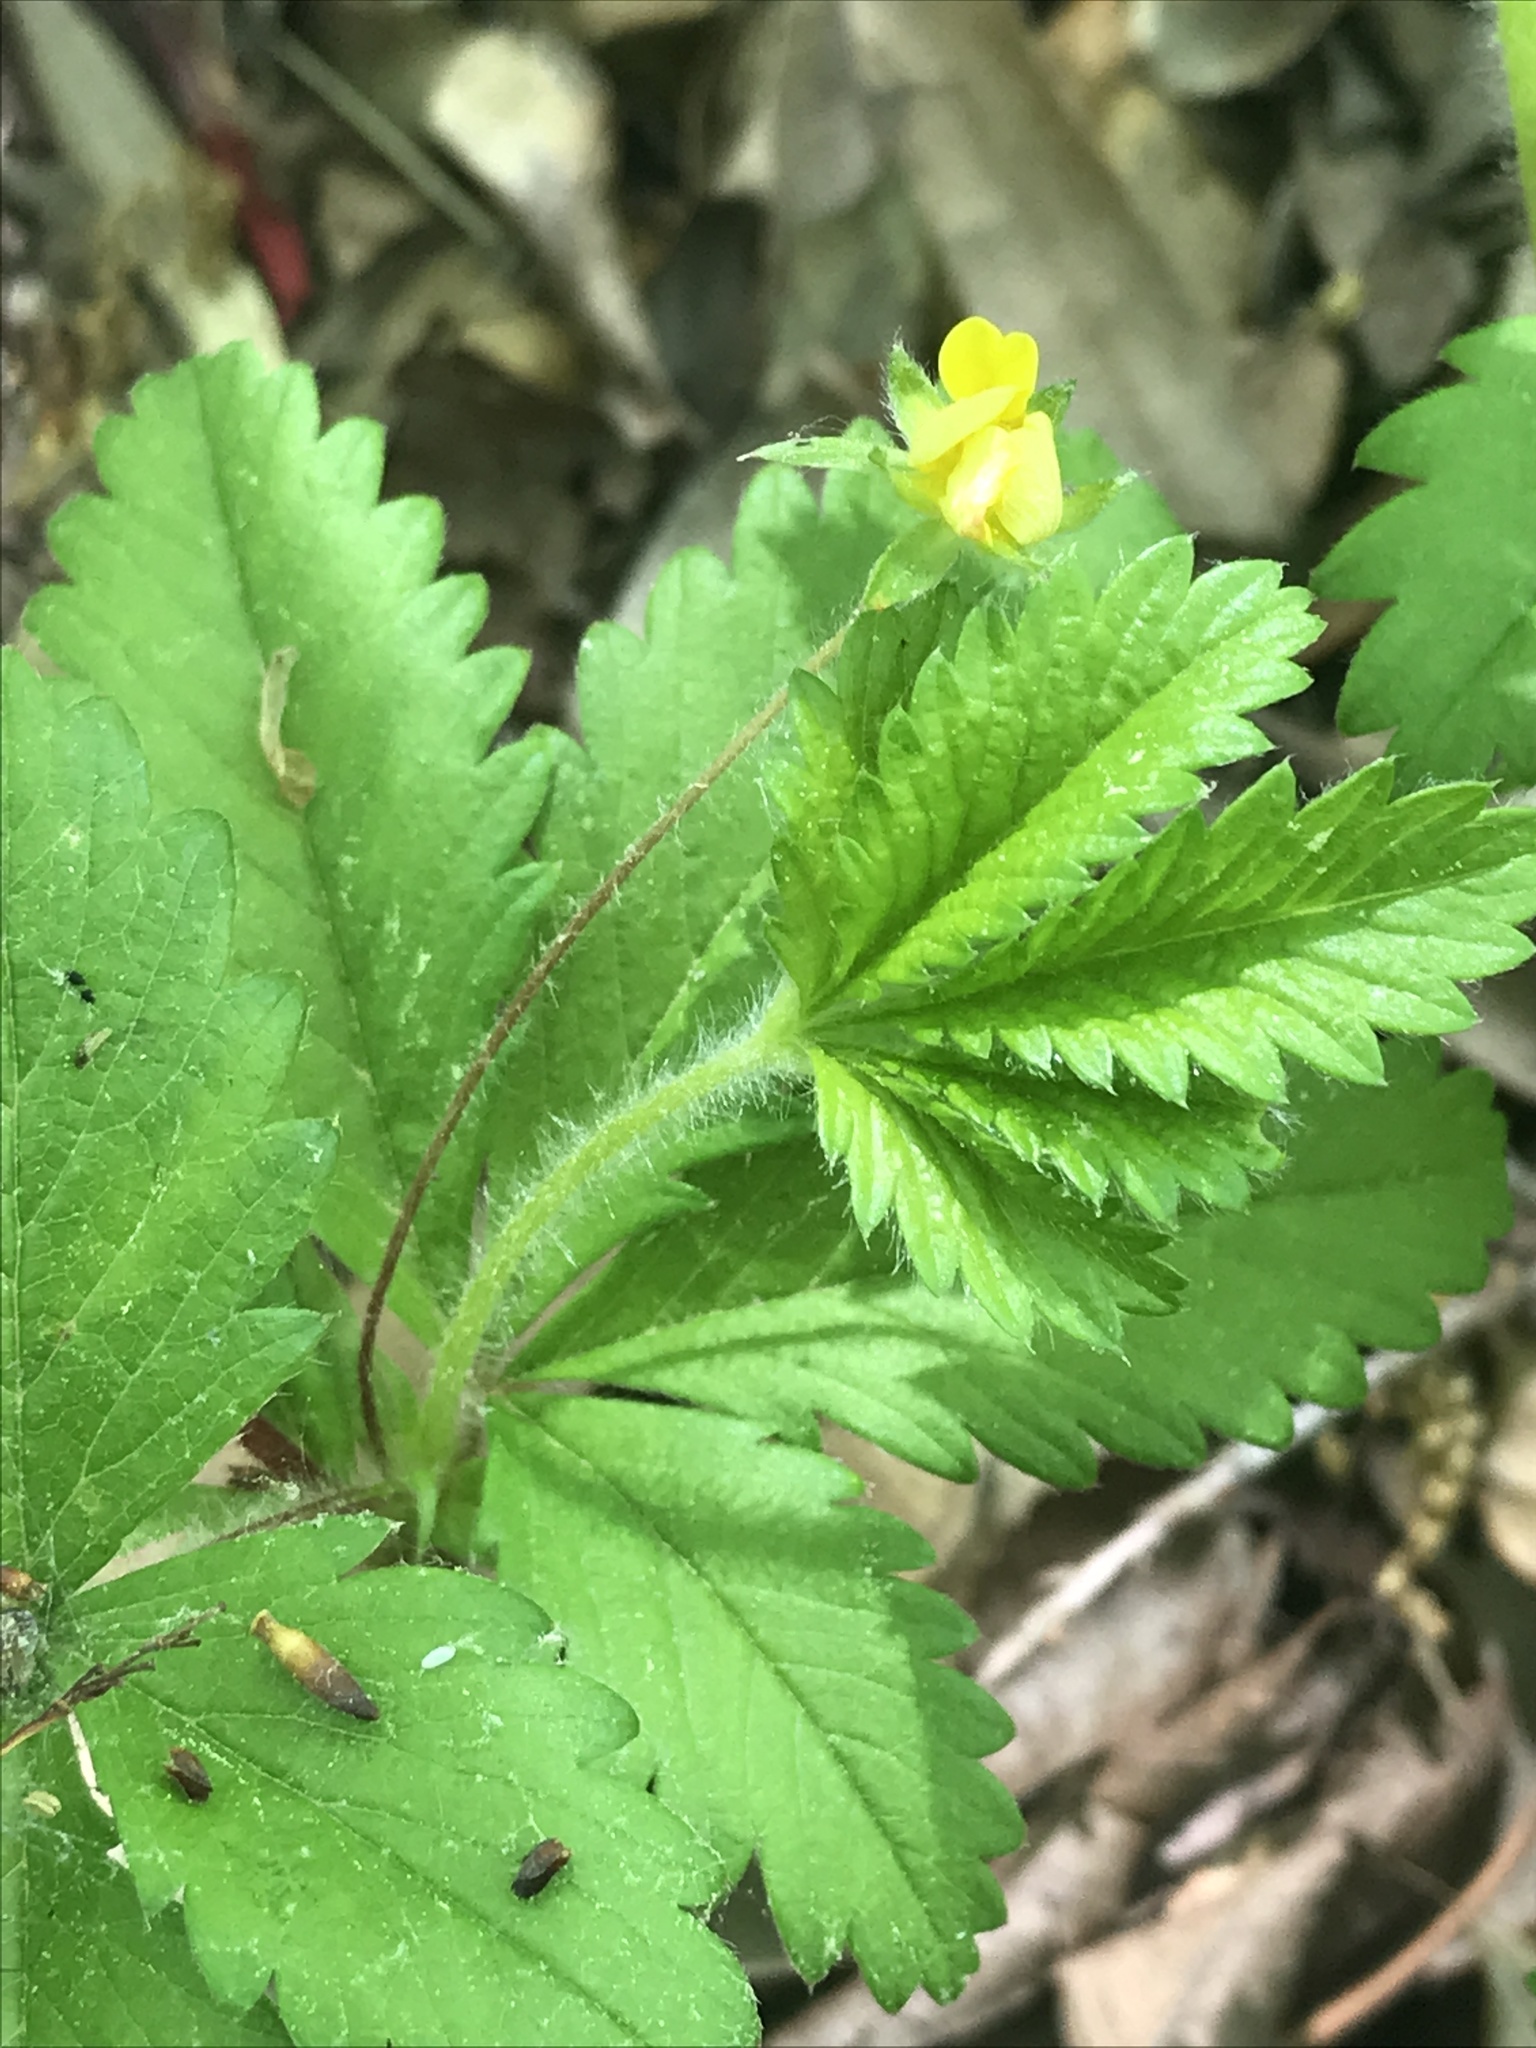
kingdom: Plantae
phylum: Tracheophyta
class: Magnoliopsida
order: Rosales
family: Rosaceae
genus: Potentilla
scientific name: Potentilla simplex
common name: Old field cinquefoil
